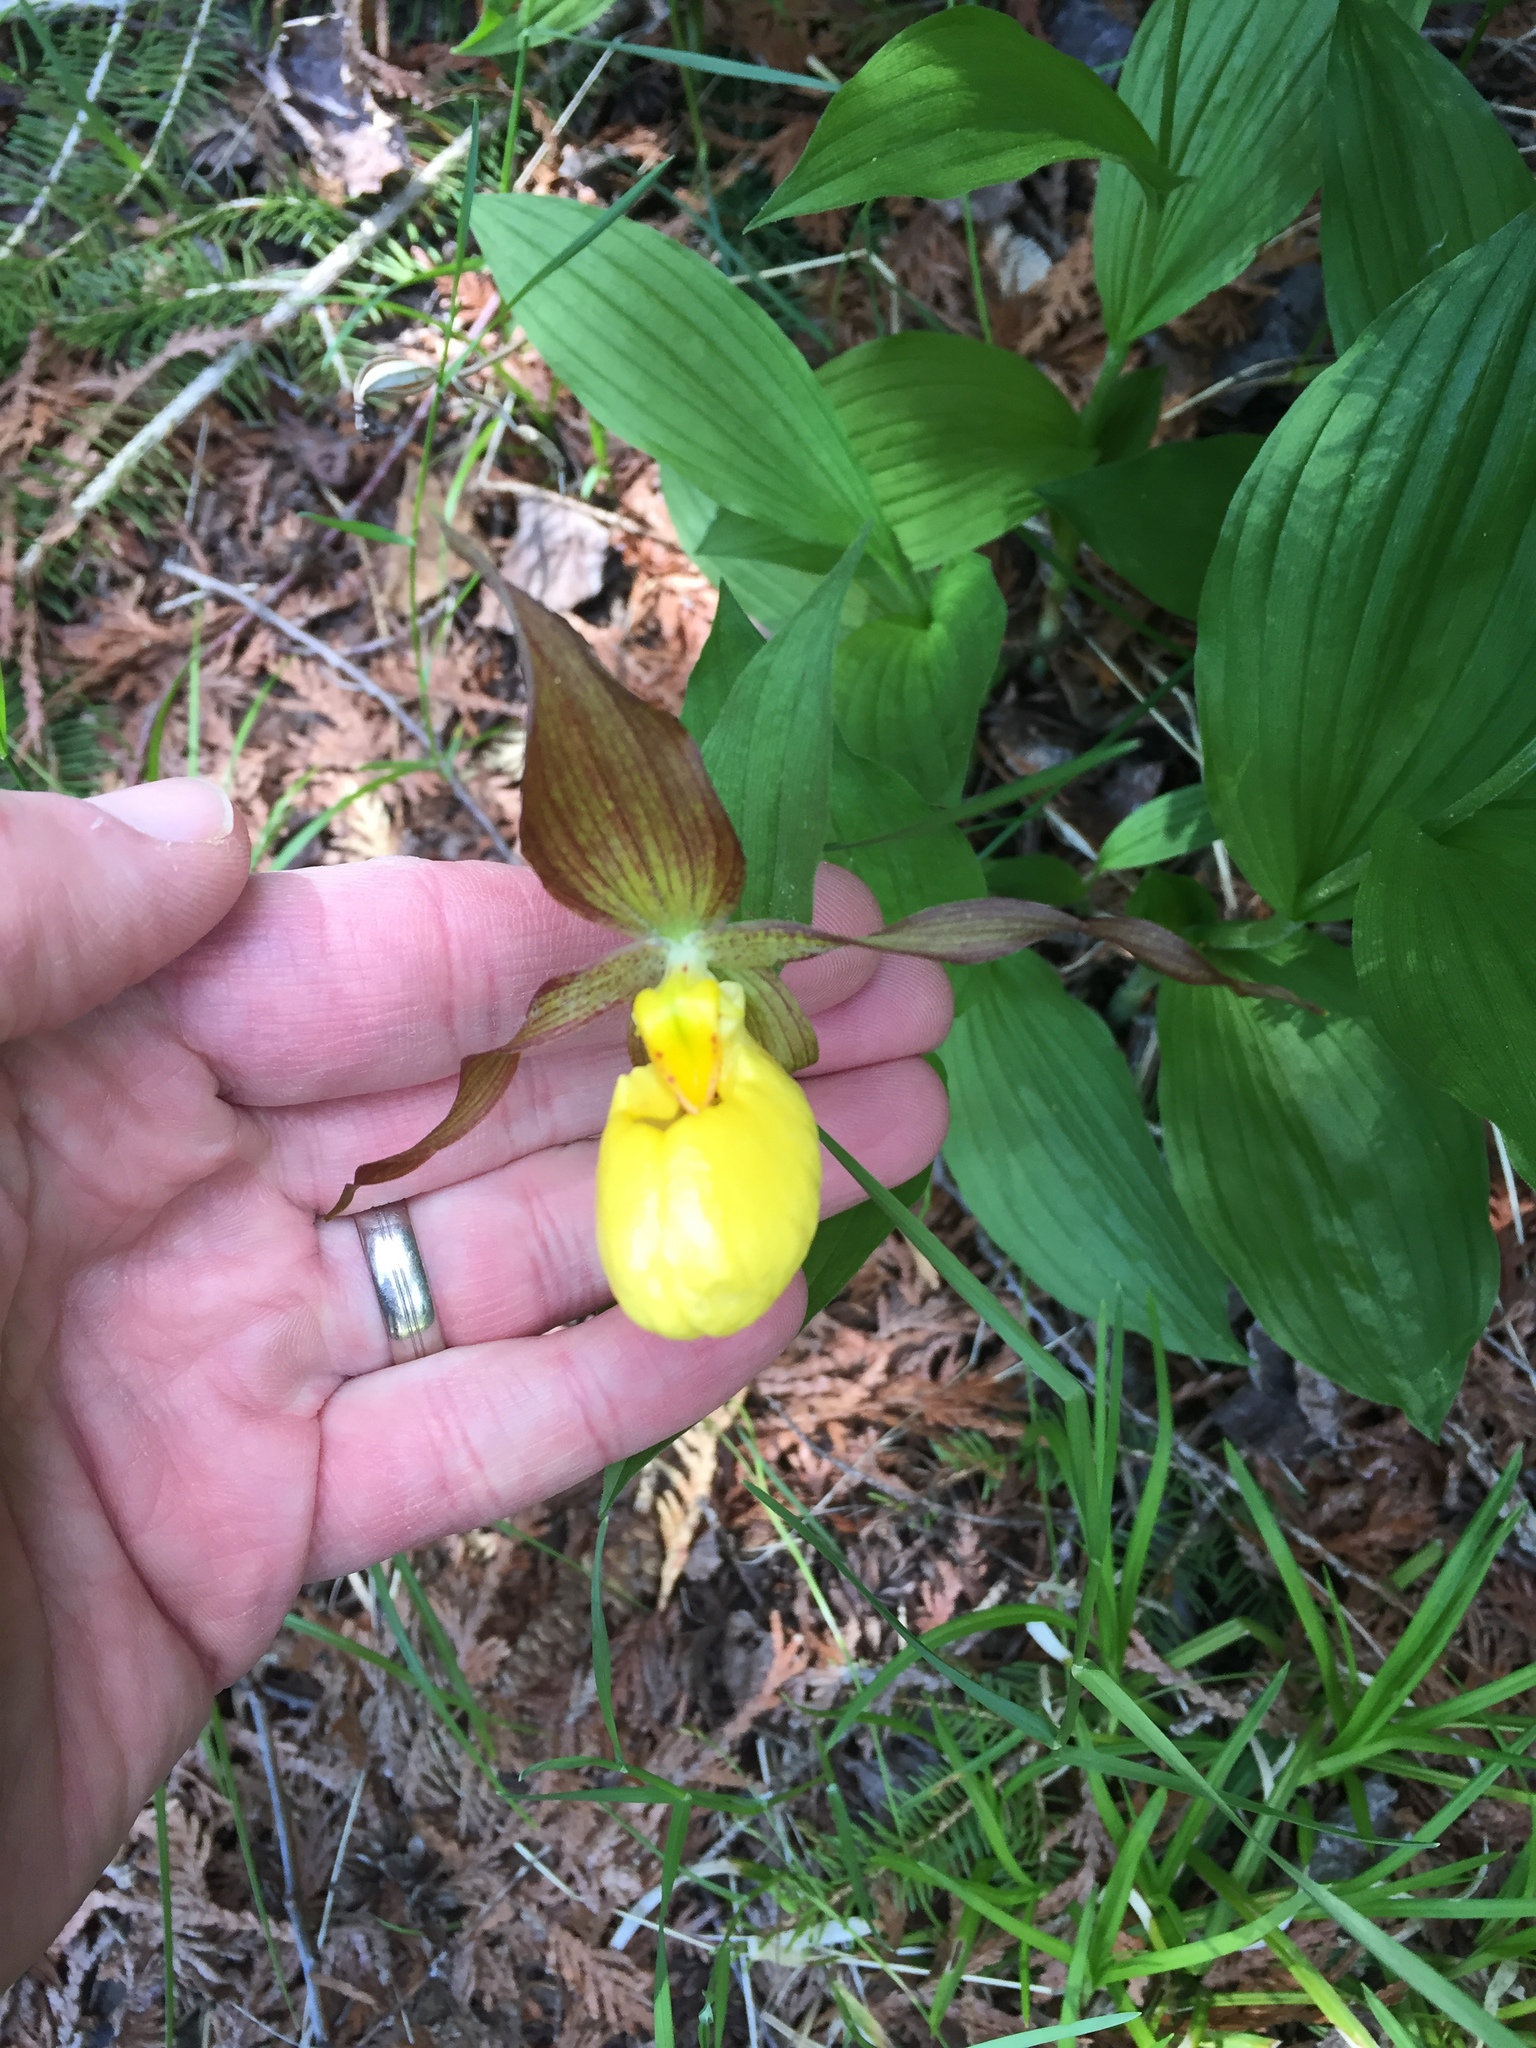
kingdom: Plantae
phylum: Tracheophyta
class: Liliopsida
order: Asparagales
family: Orchidaceae
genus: Cypripedium
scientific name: Cypripedium parviflorum
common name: American yellow lady's-slipper
